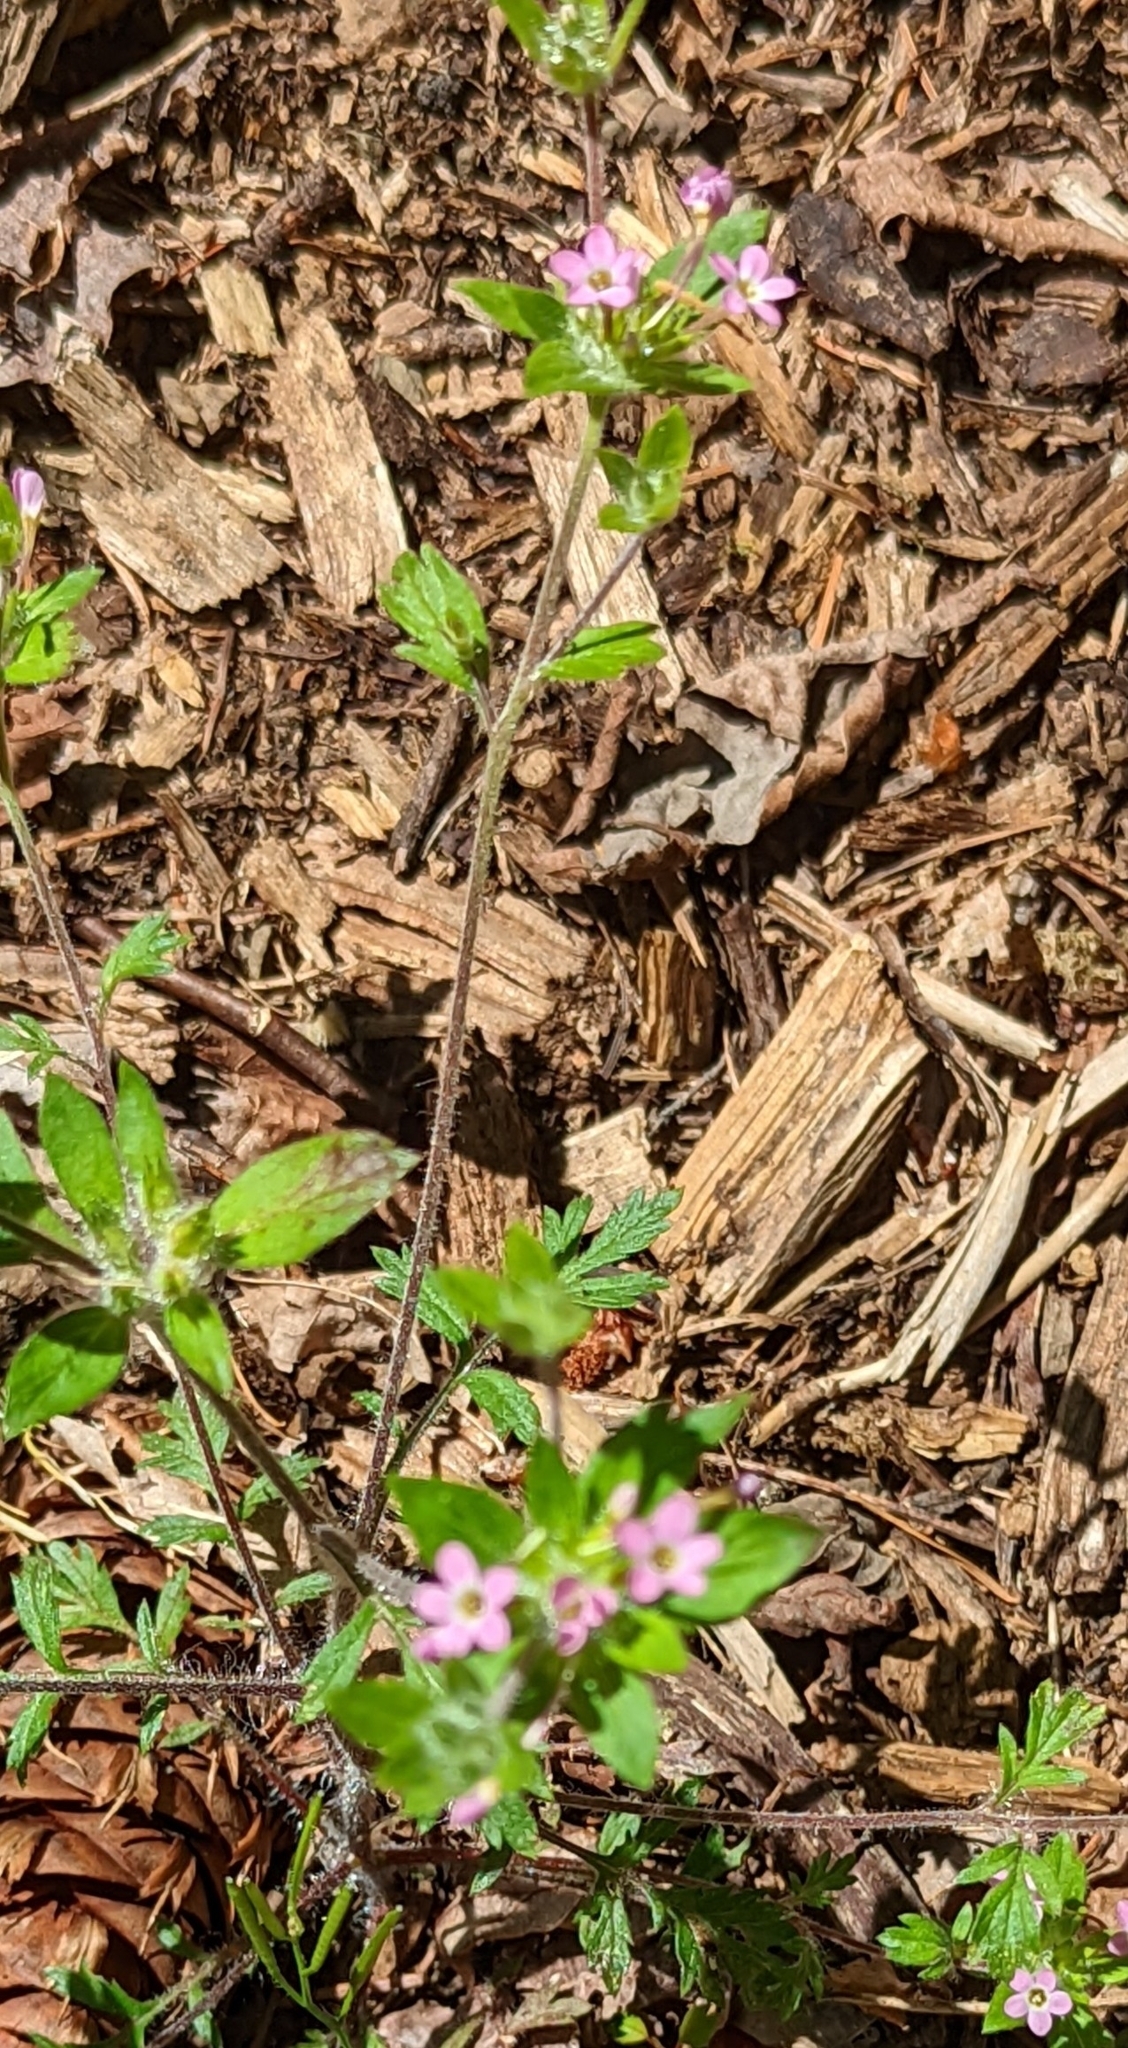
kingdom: Plantae
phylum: Tracheophyta
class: Magnoliopsida
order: Ericales
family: Polemoniaceae
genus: Collomia
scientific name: Collomia heterophylla
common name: Variable-leaved collomia
